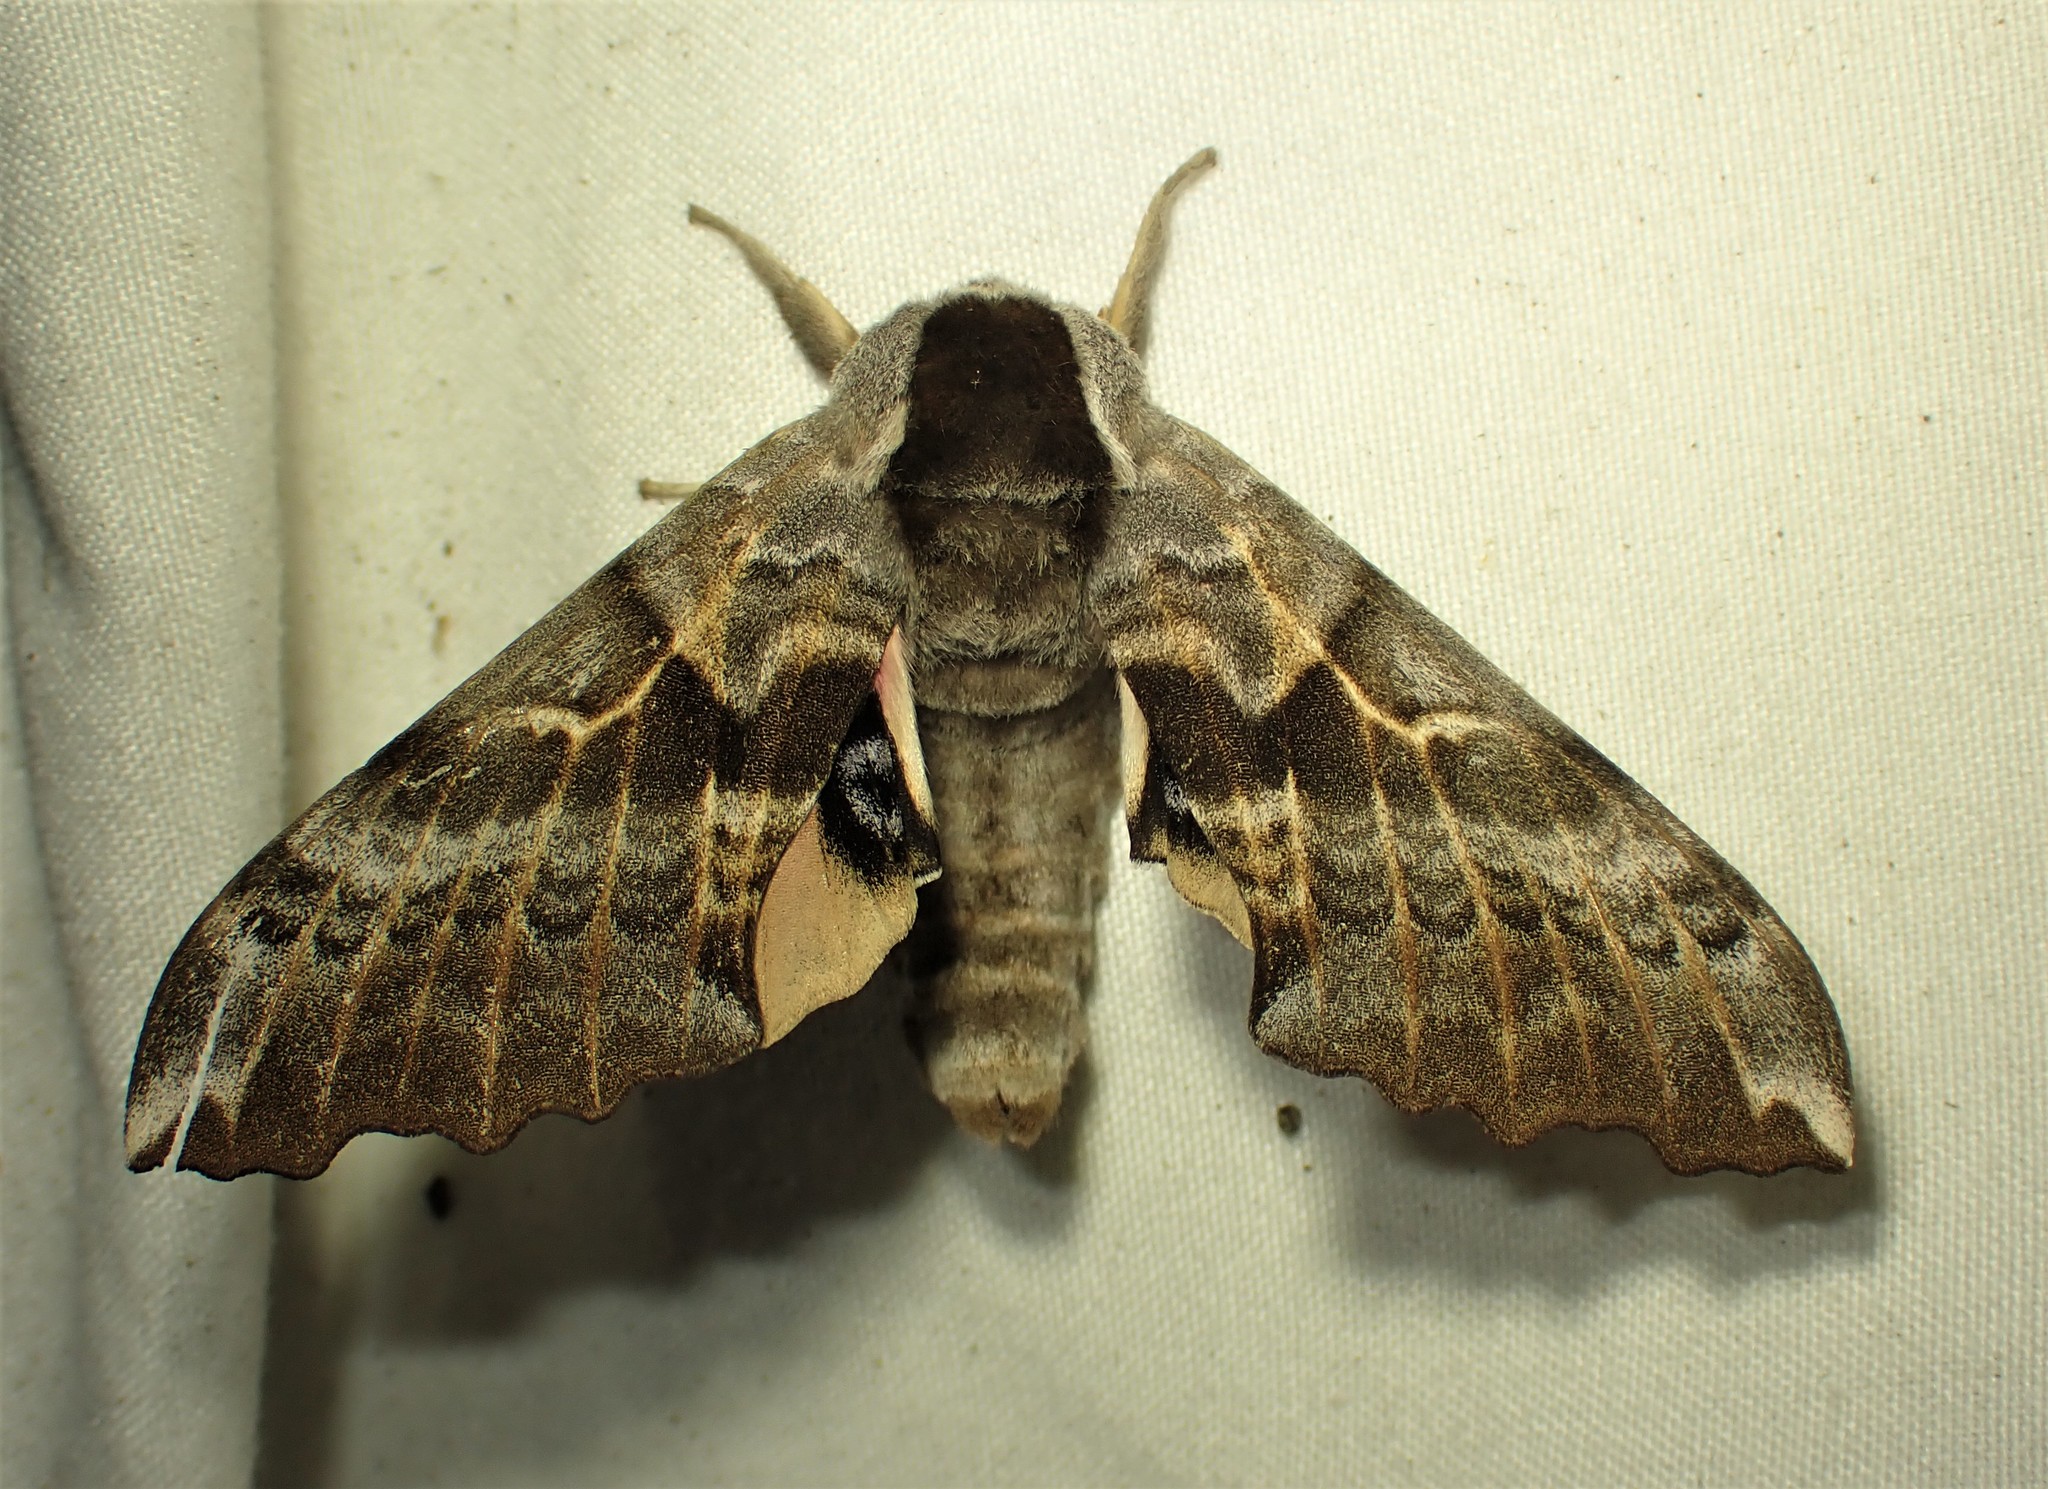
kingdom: Animalia
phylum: Arthropoda
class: Insecta
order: Lepidoptera
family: Sphingidae
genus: Smerinthus
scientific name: Smerinthus cerisyi
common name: Cerisy's sphinx moth
